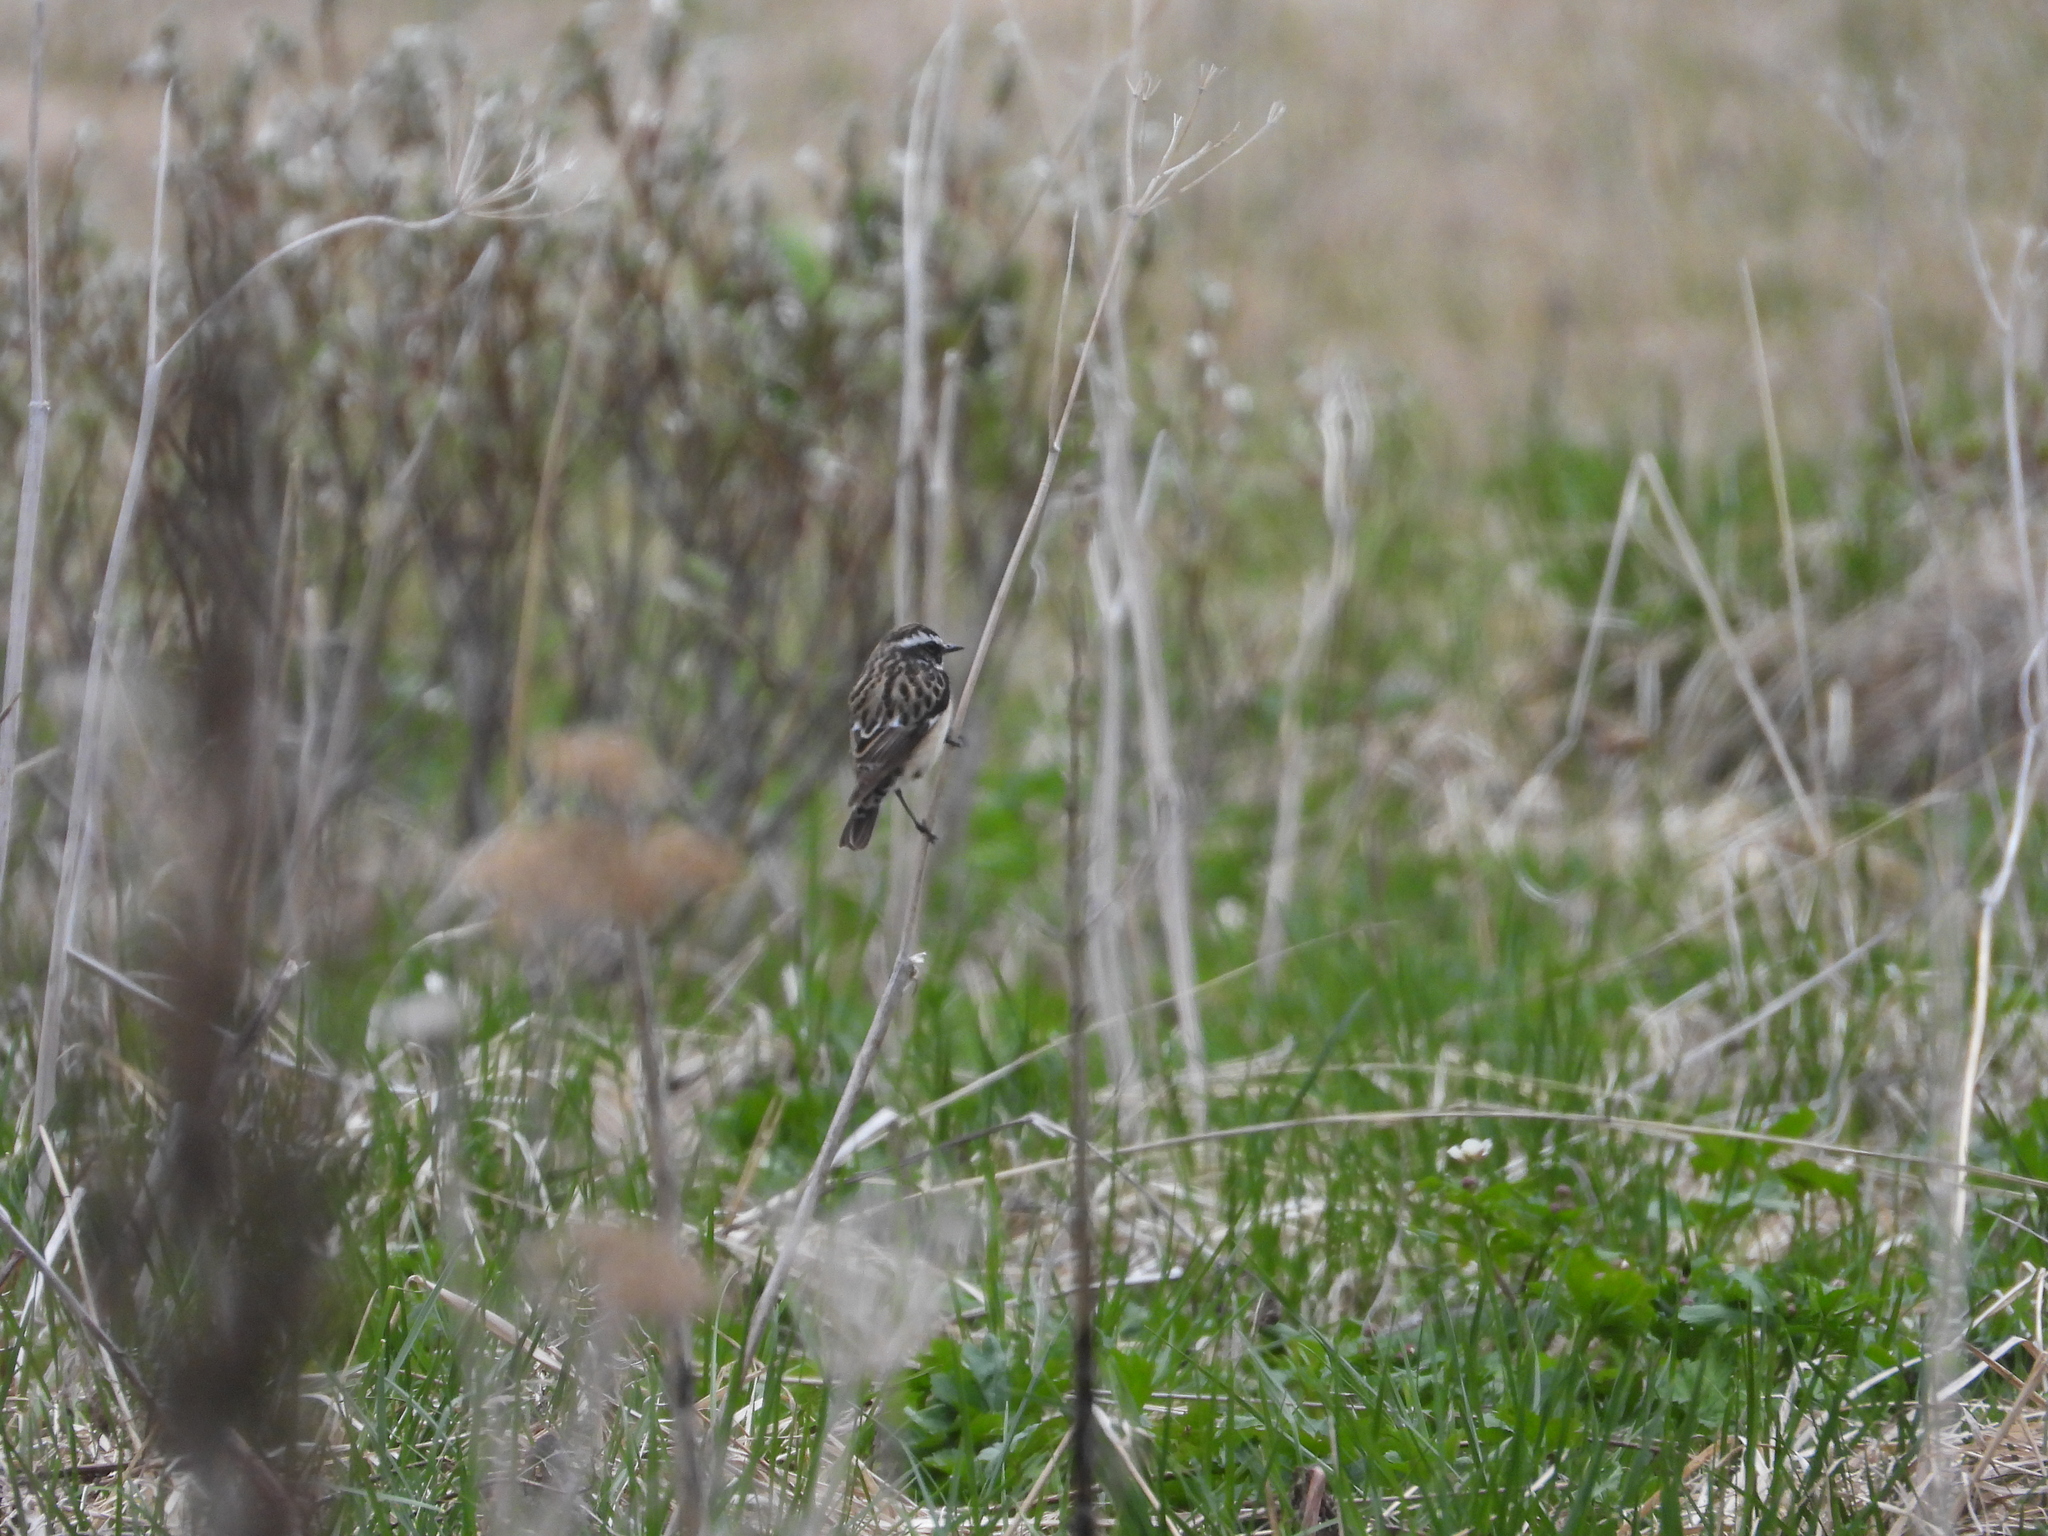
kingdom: Animalia
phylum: Chordata
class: Aves
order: Passeriformes
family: Muscicapidae
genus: Saxicola
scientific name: Saxicola rubetra
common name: Whinchat
